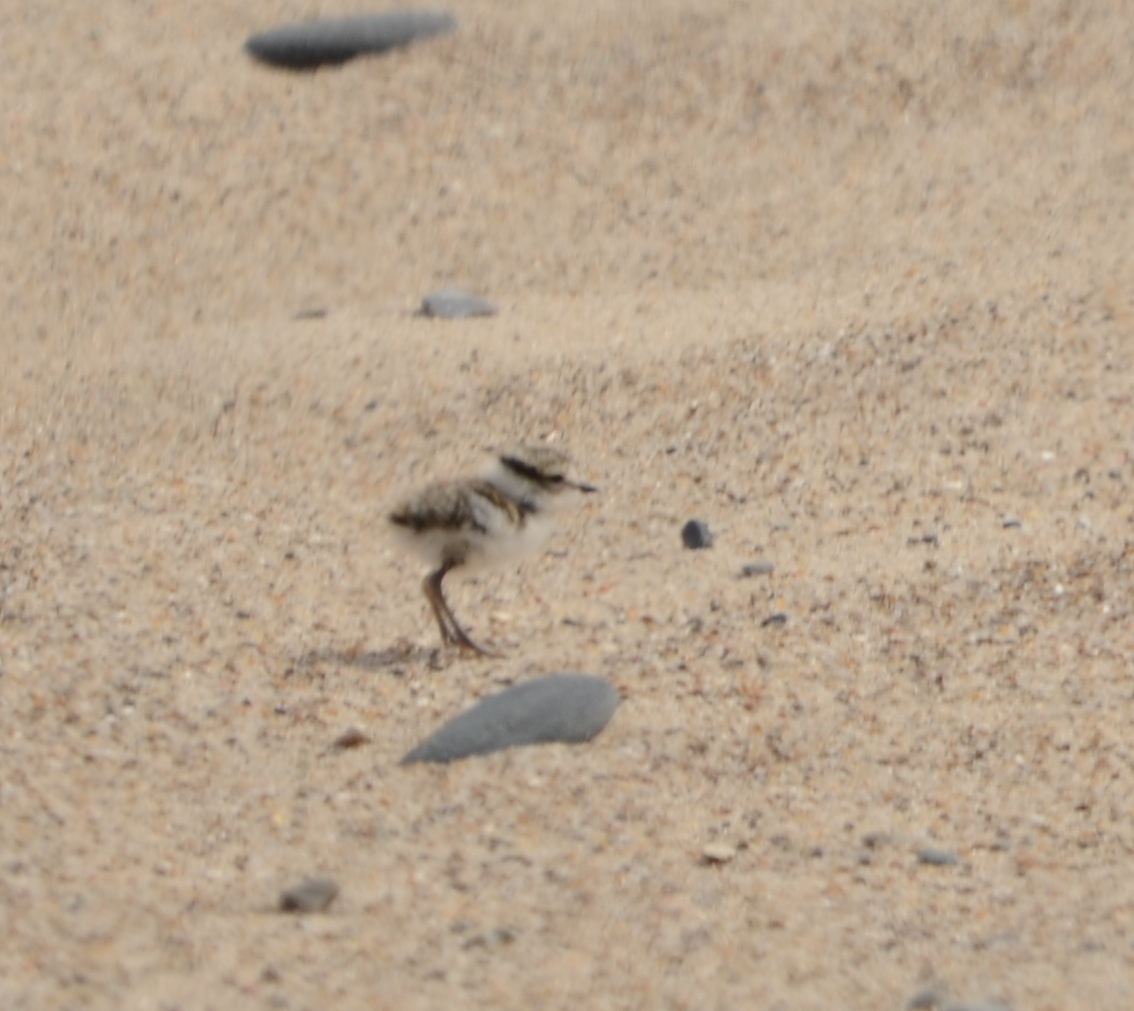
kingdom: Animalia
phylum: Chordata
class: Aves
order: Charadriiformes
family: Charadriidae
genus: Charadrius
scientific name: Charadrius hiaticula
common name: Common ringed plover
